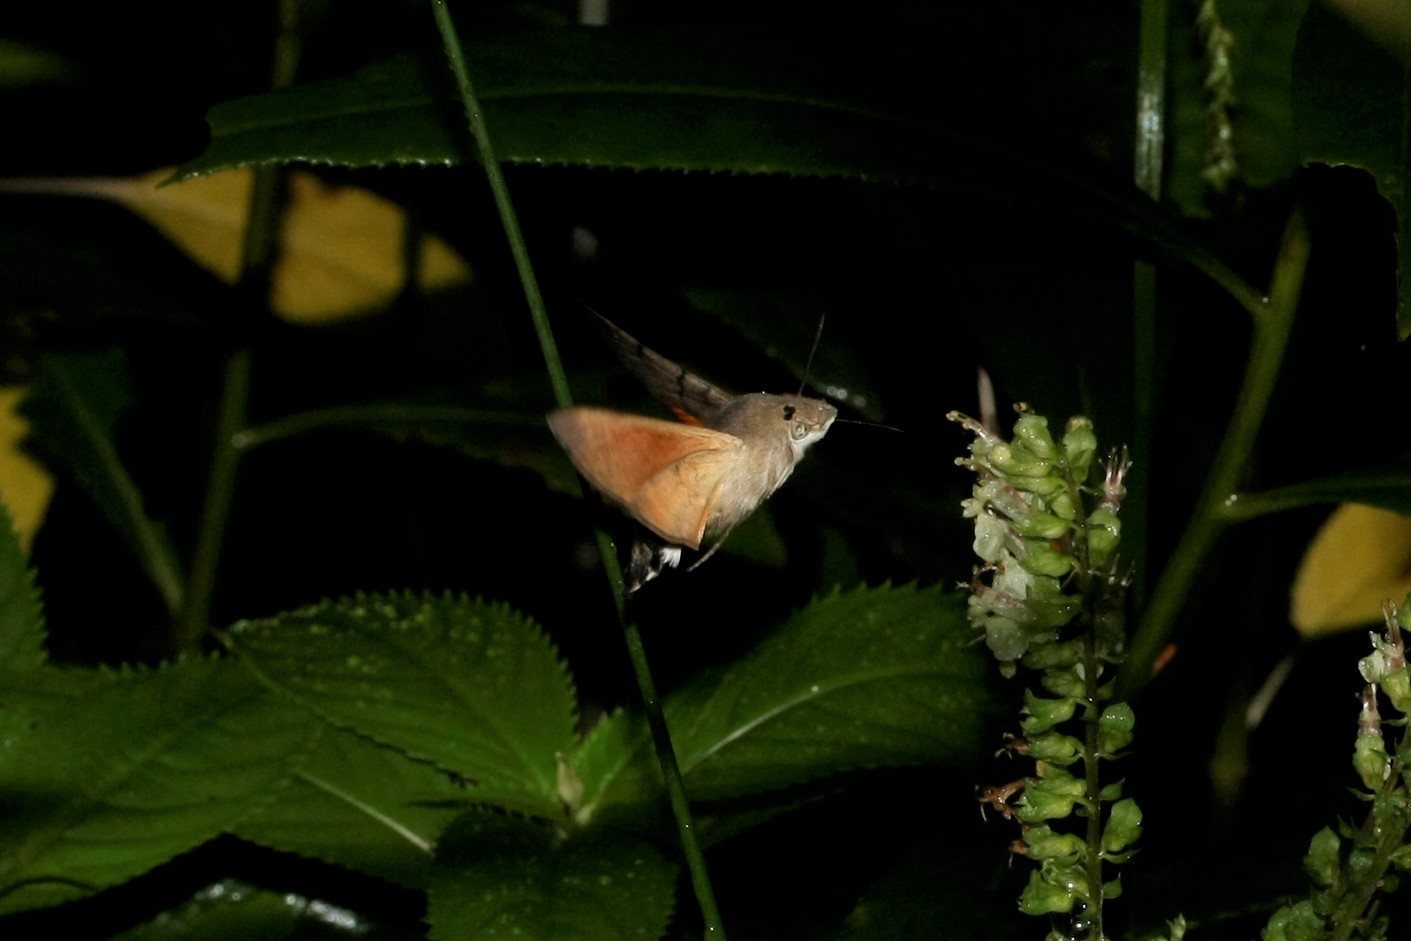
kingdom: Animalia
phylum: Arthropoda
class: Insecta
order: Lepidoptera
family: Sphingidae
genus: Macroglossum
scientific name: Macroglossum stellatarum
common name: Humming-bird hawk-moth
